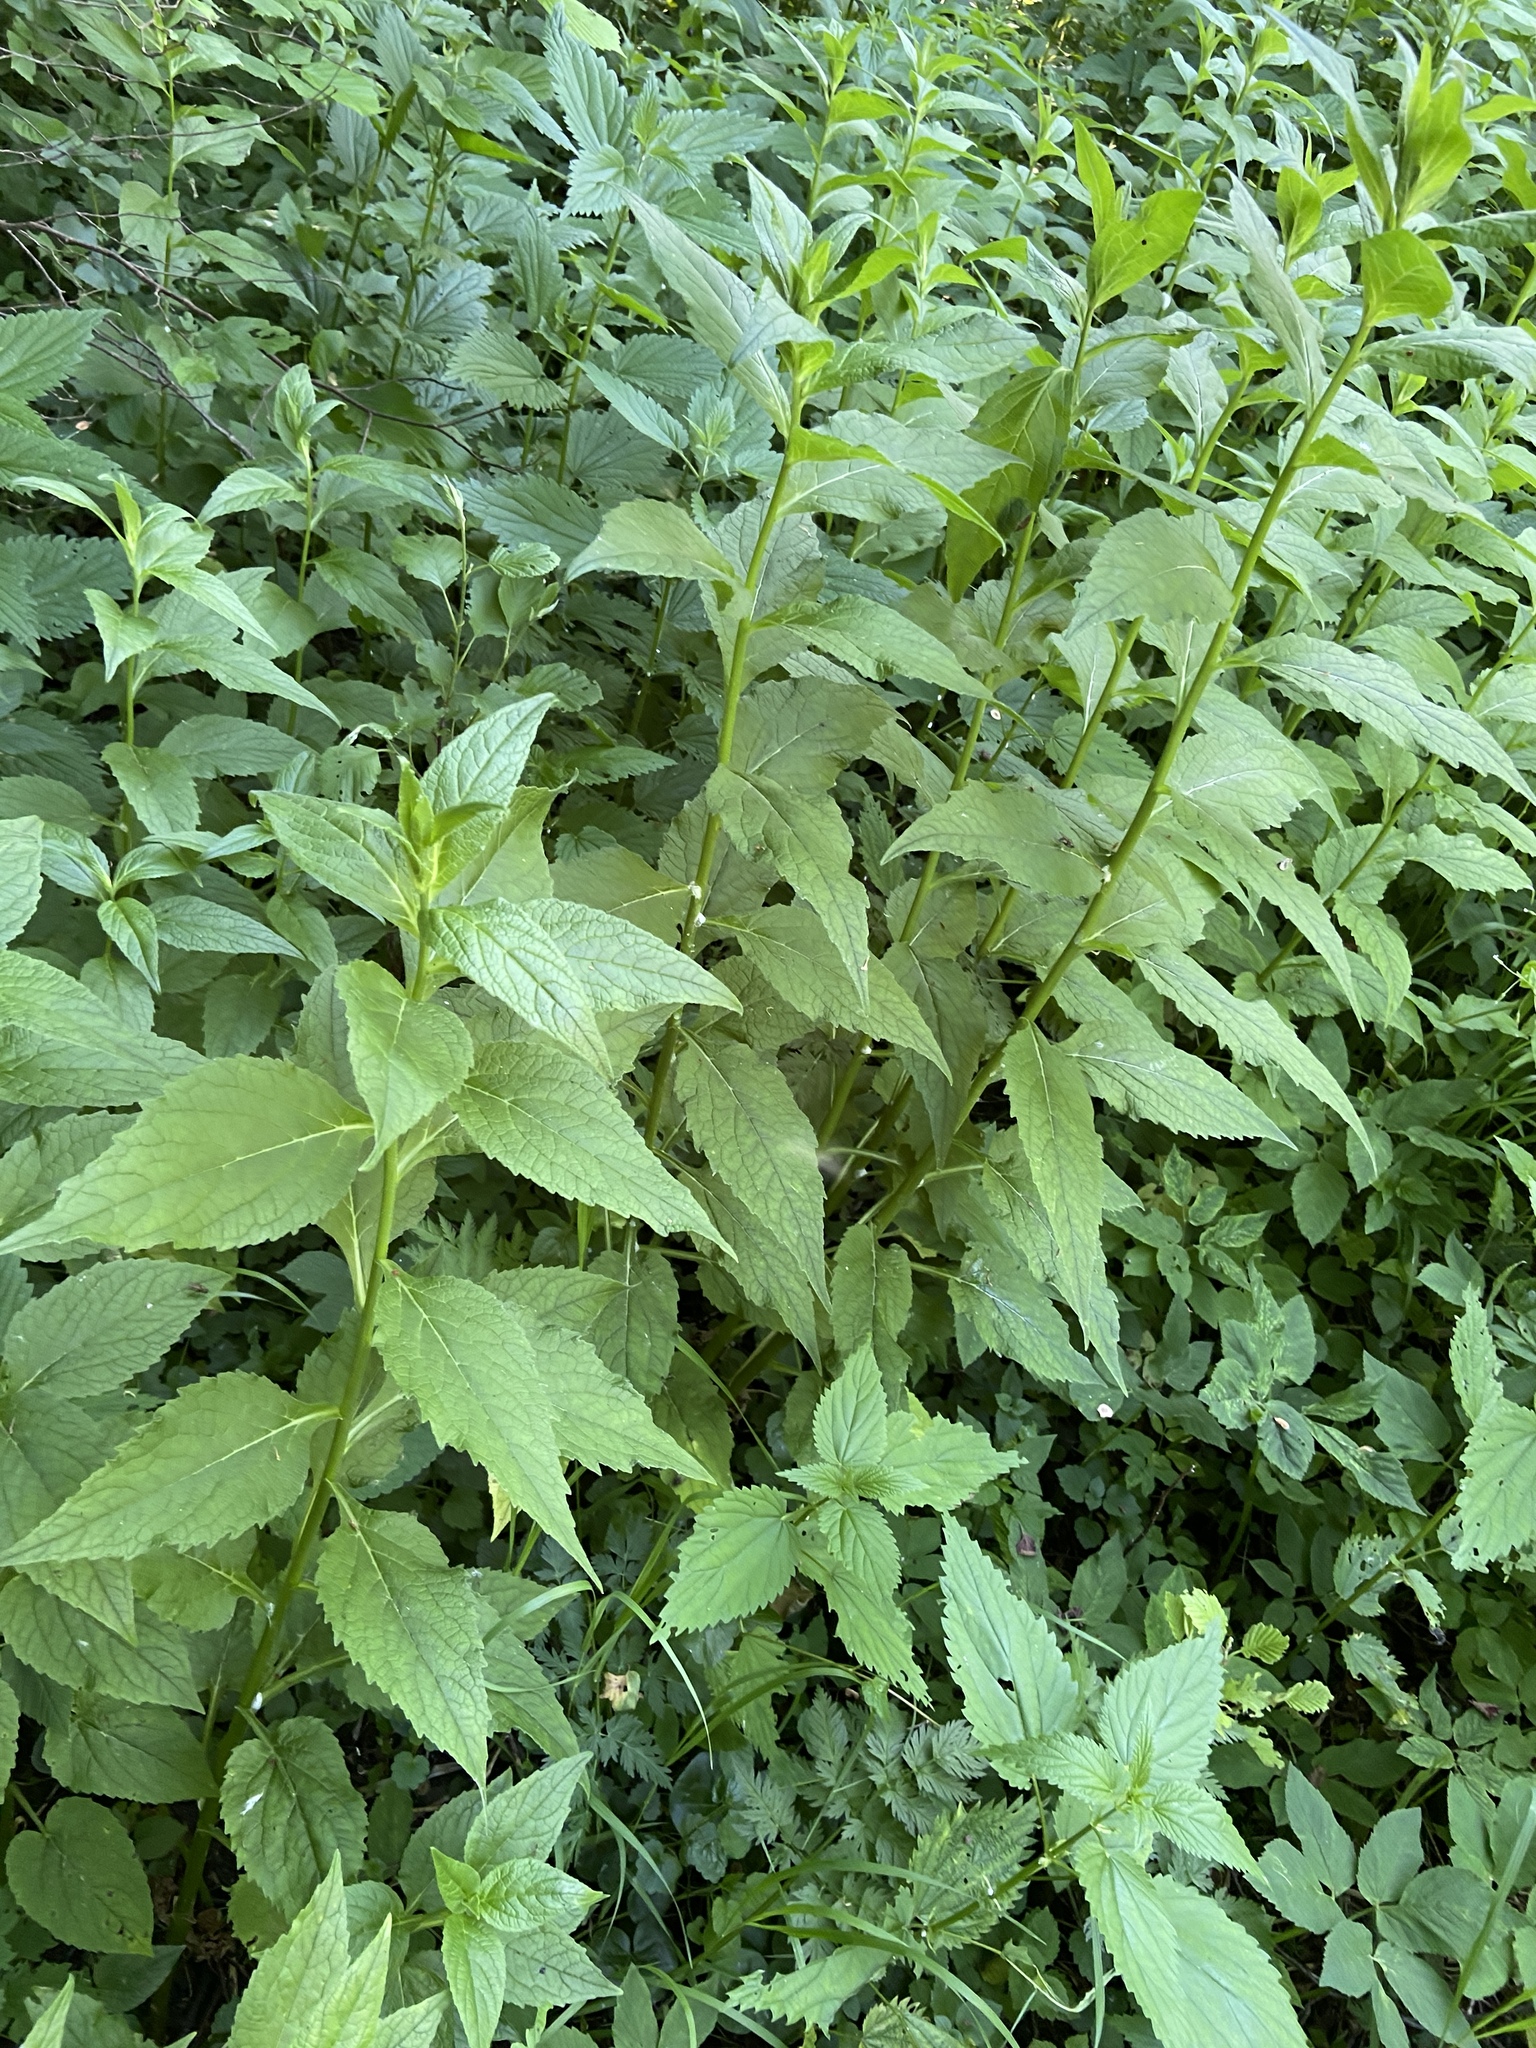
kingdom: Plantae
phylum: Tracheophyta
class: Magnoliopsida
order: Asterales
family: Campanulaceae
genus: Campanula
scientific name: Campanula latifolia
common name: Giant bellflower
